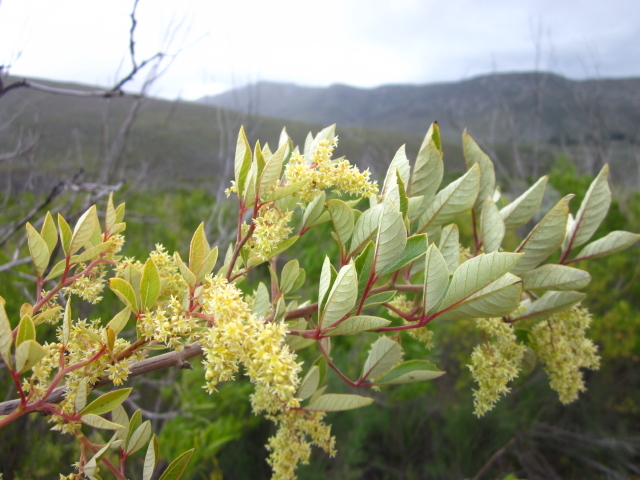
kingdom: Plantae
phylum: Tracheophyta
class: Magnoliopsida
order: Sapindales
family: Anacardiaceae
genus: Searsia
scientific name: Searsia tomentosa
